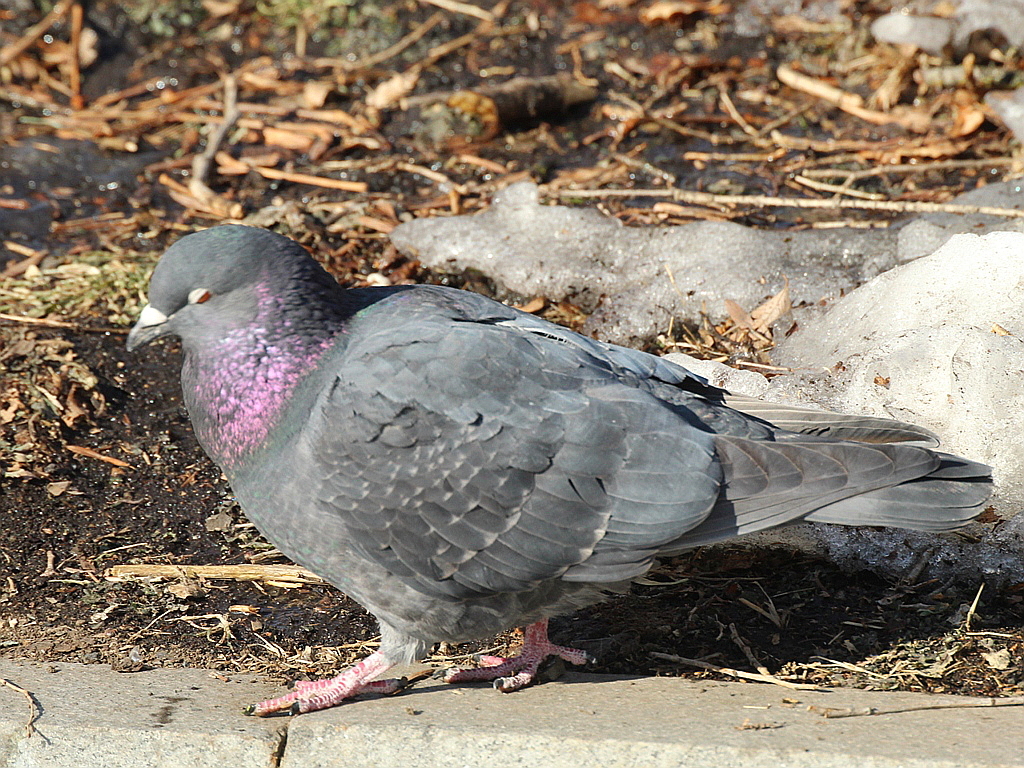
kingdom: Animalia
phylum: Chordata
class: Aves
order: Columbiformes
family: Columbidae
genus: Columba
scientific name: Columba livia
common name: Rock pigeon
